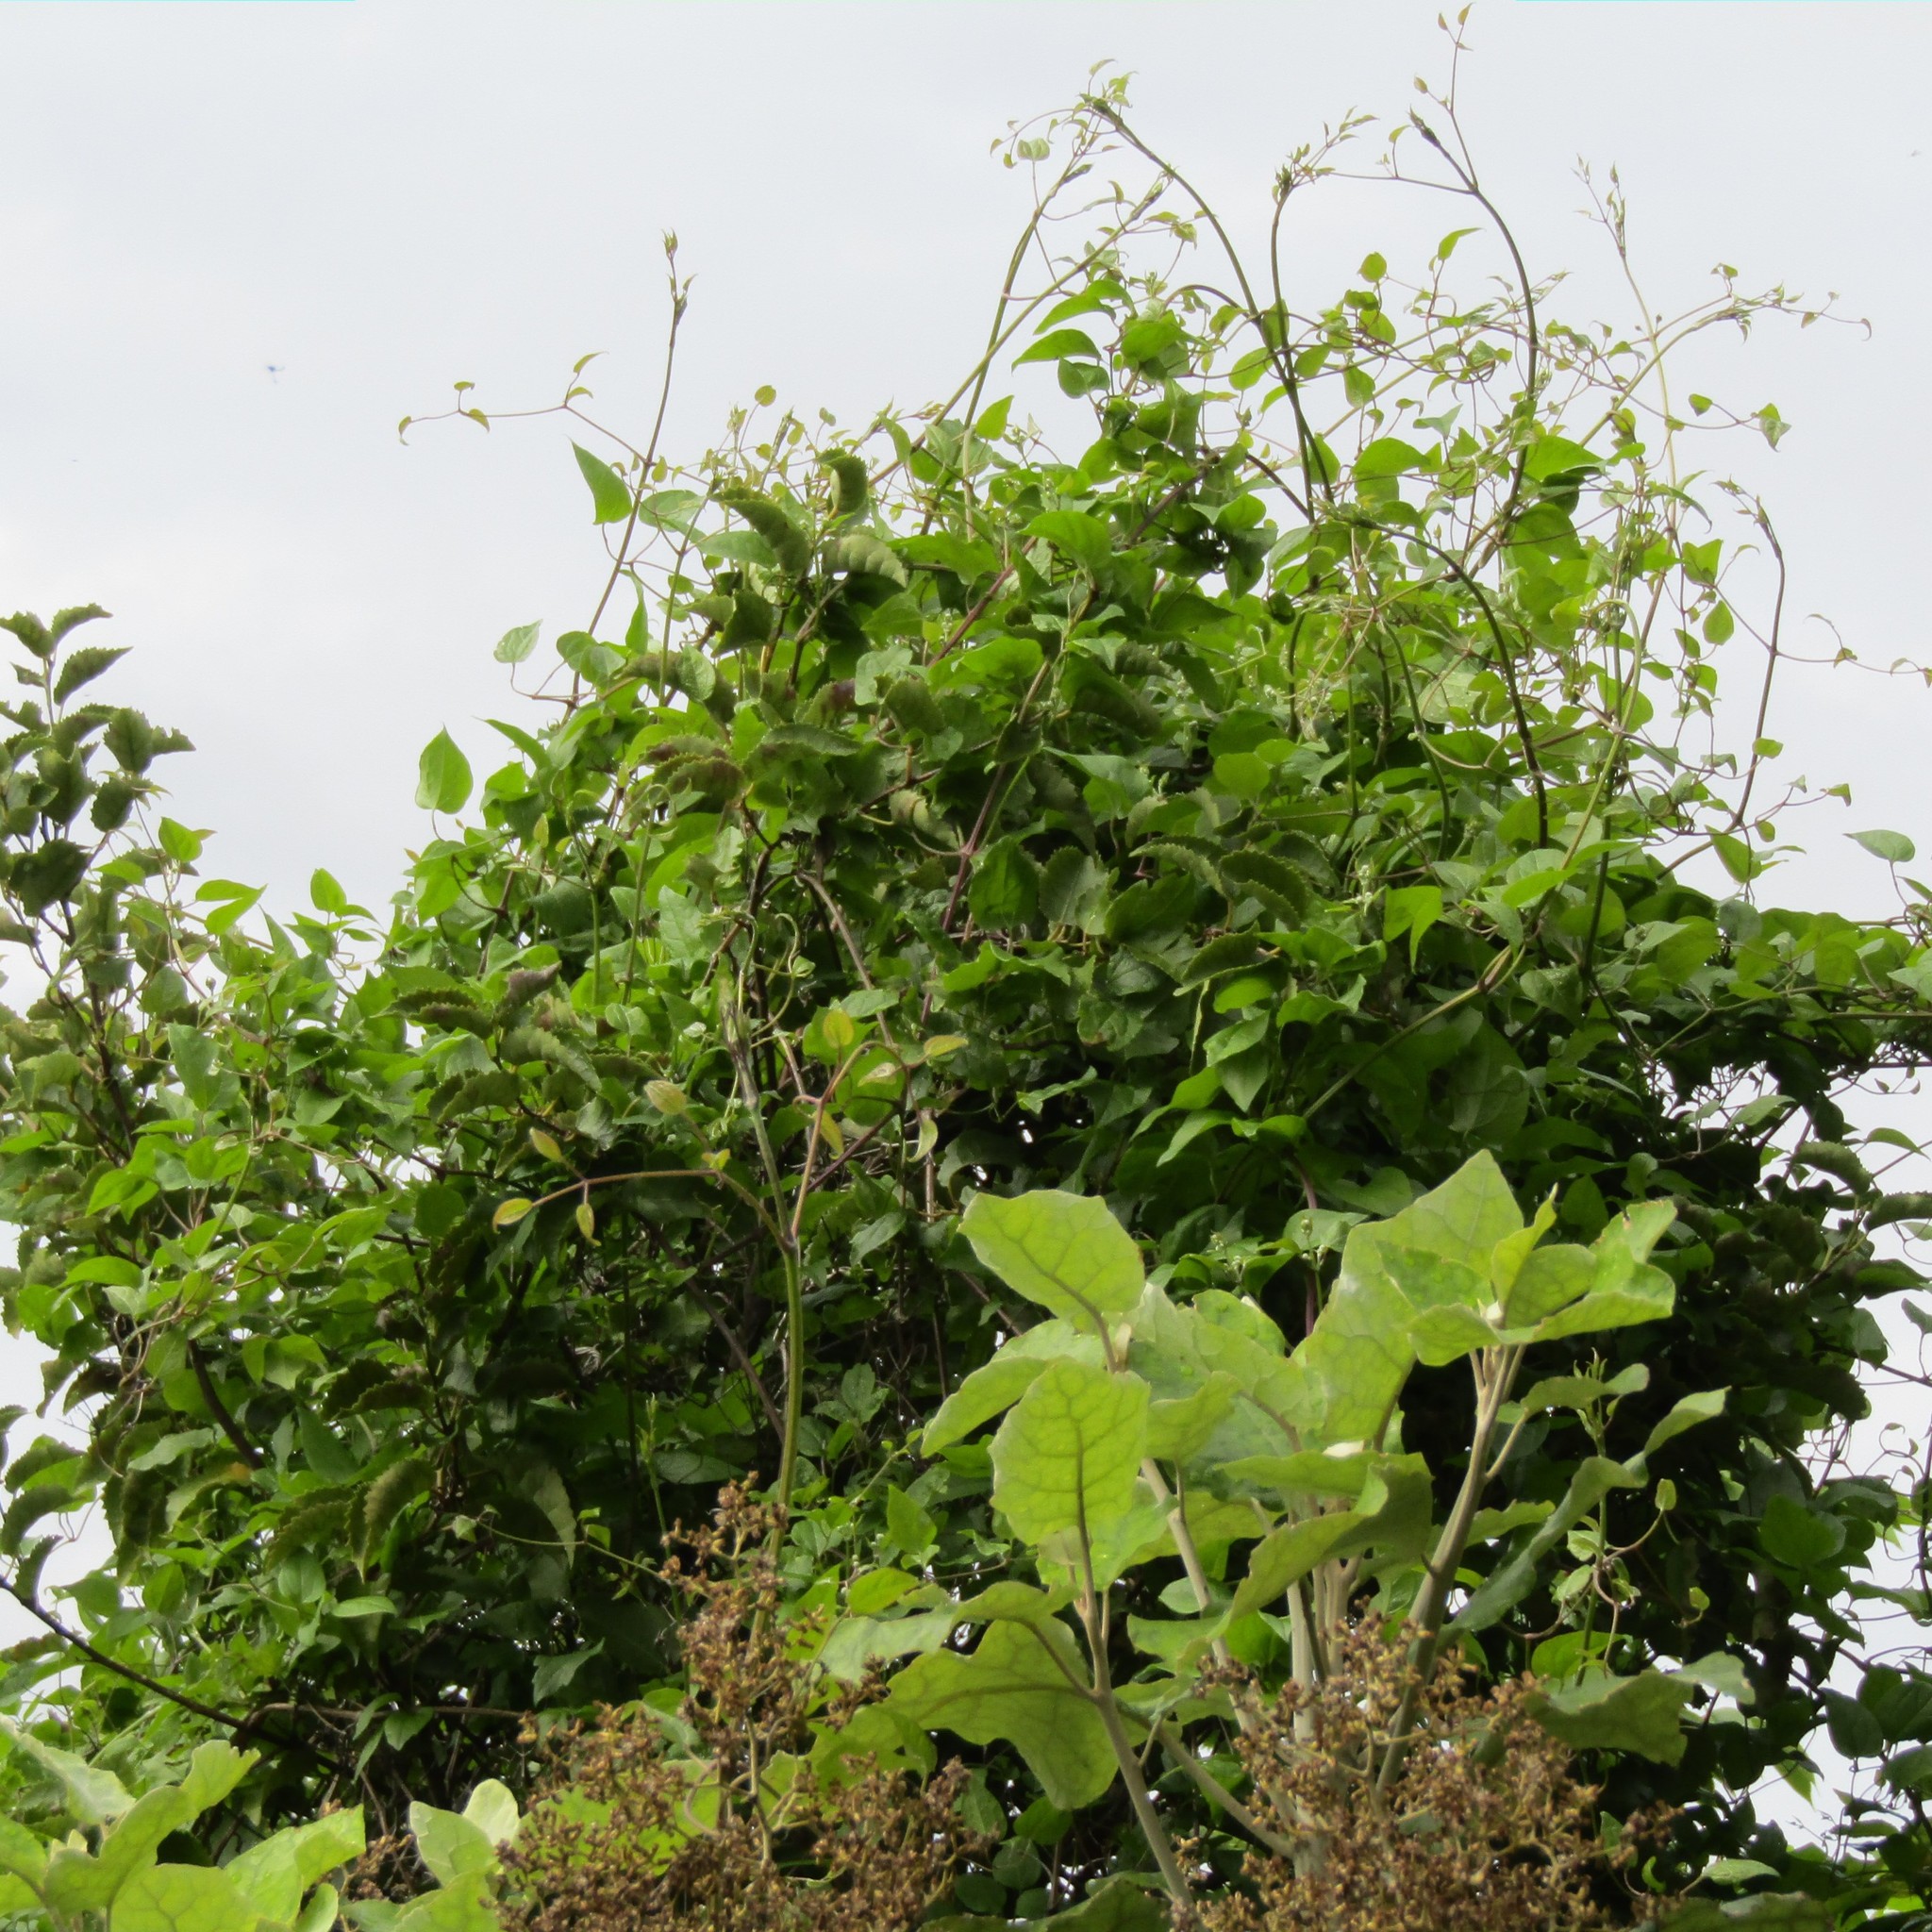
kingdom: Plantae
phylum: Tracheophyta
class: Magnoliopsida
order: Ranunculales
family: Ranunculaceae
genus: Clematis
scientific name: Clematis vitalba
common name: Evergreen clematis
